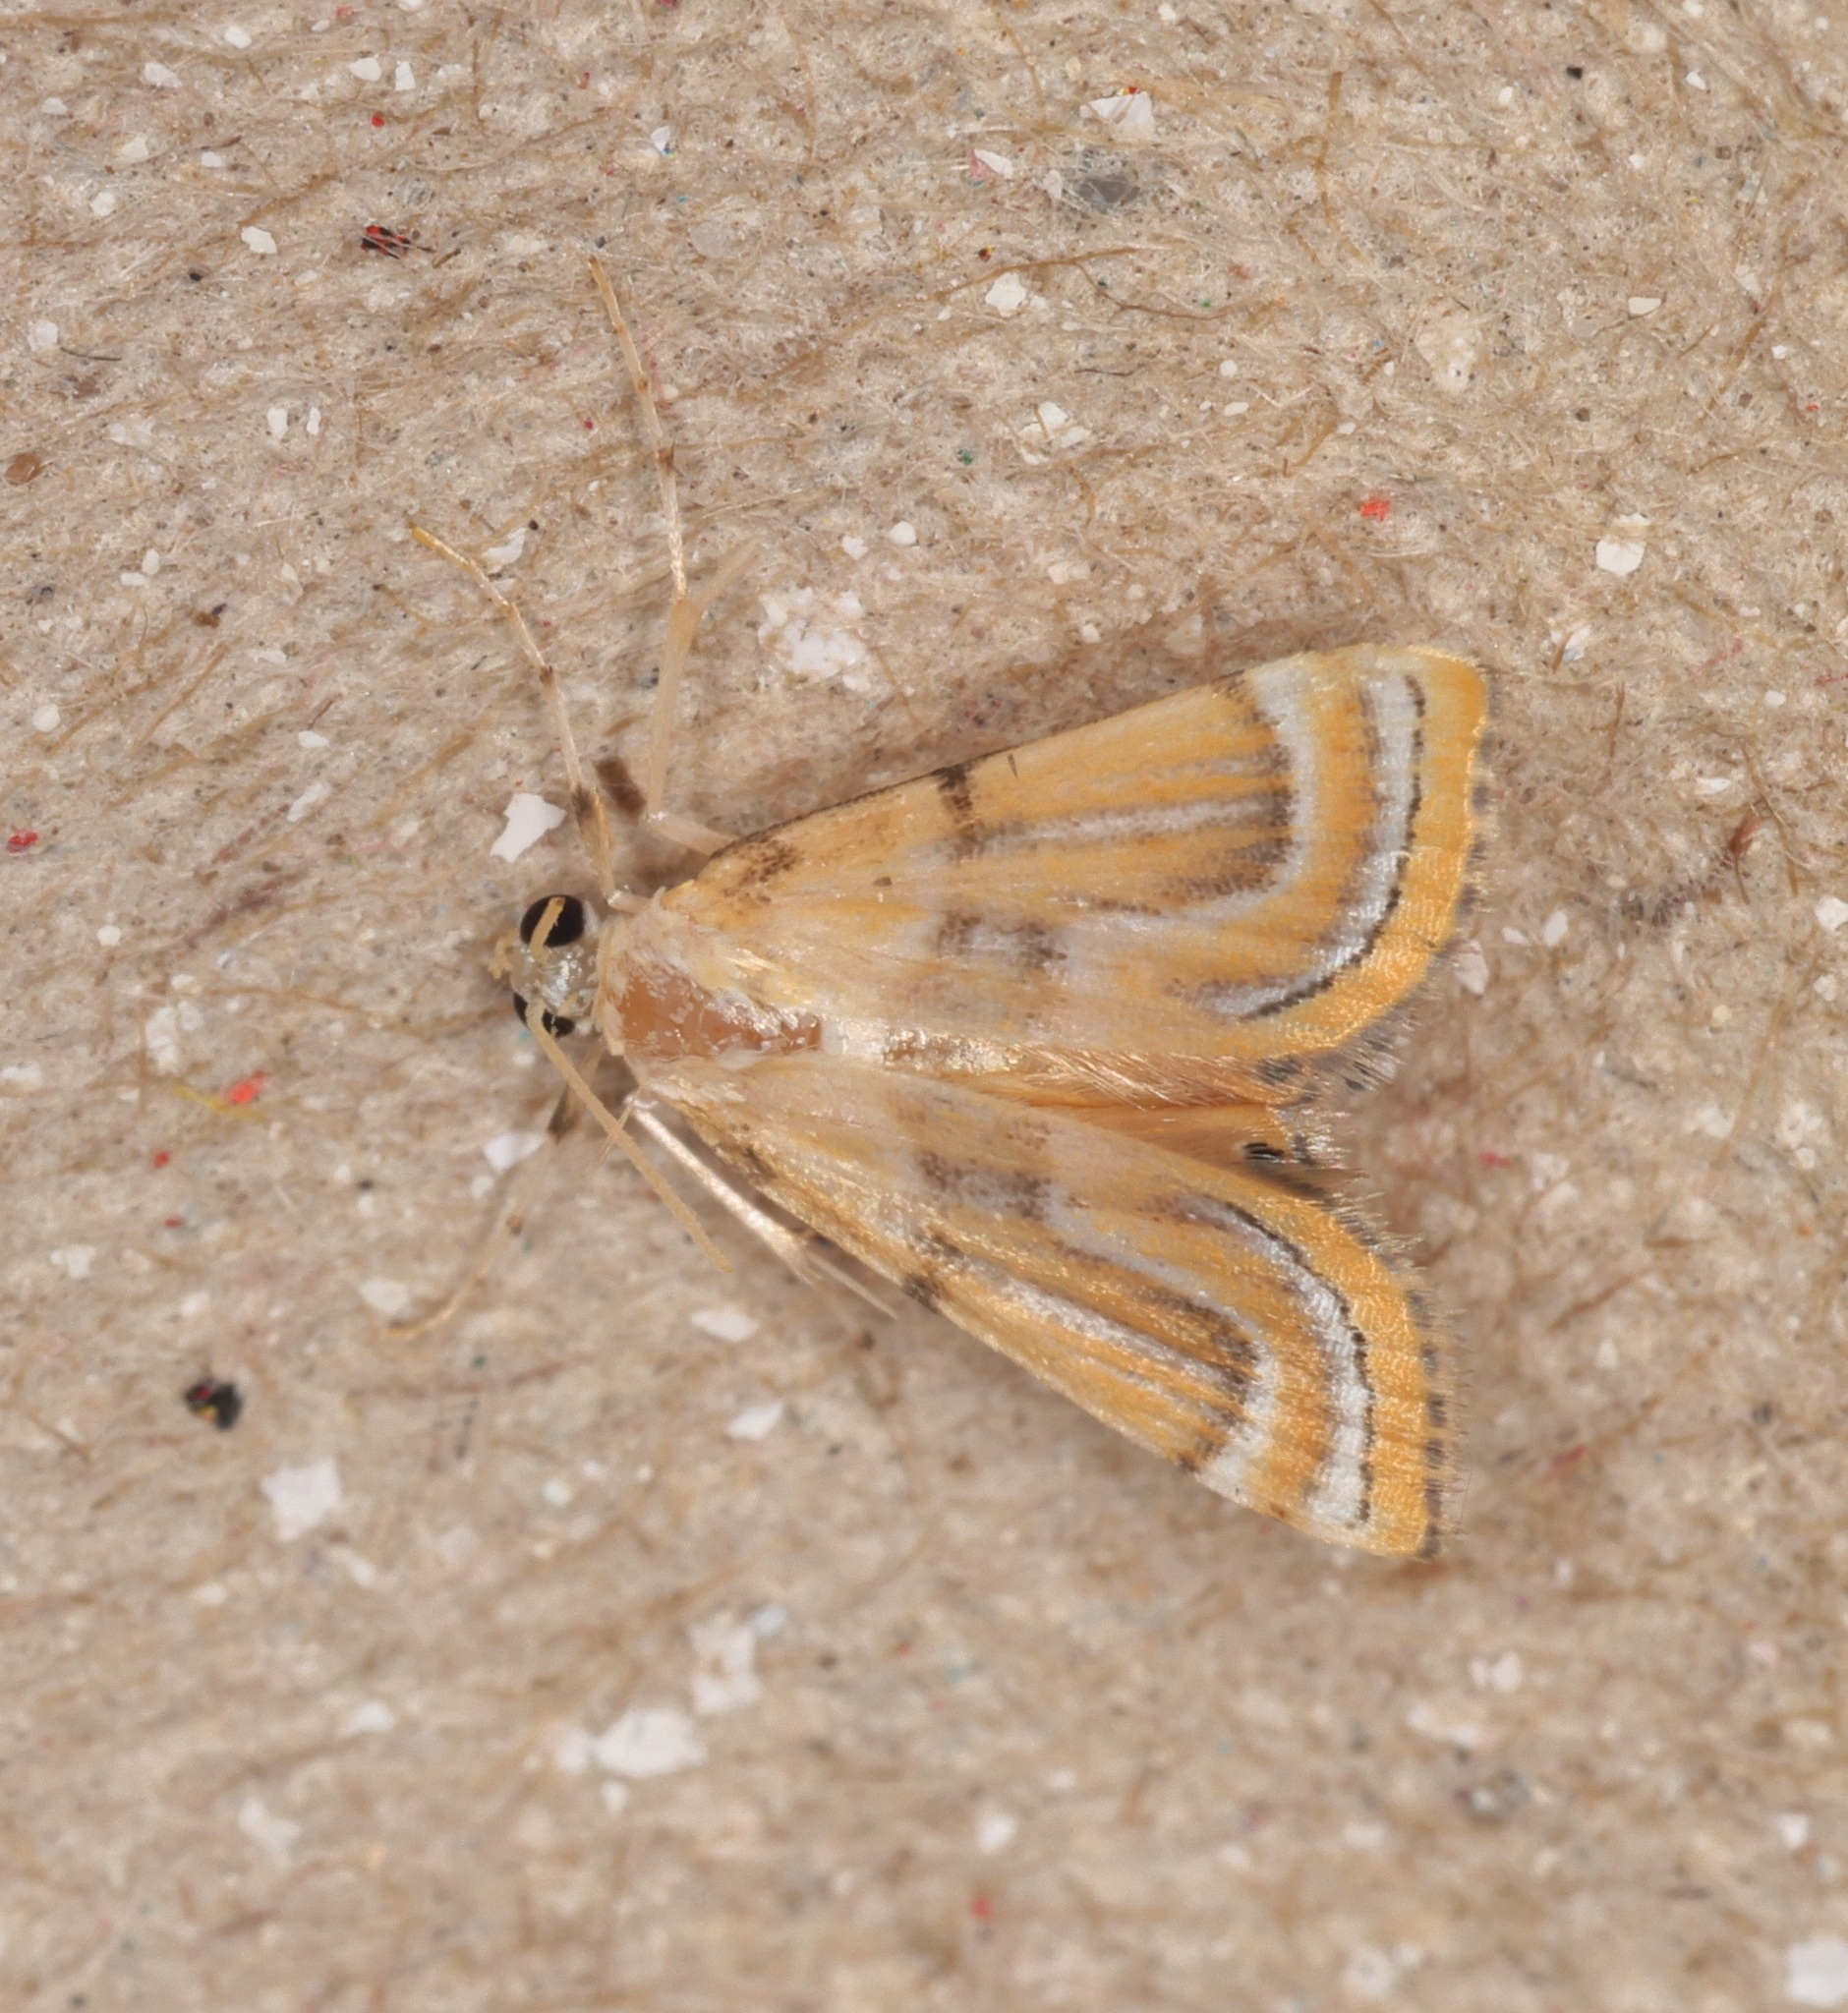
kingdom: Animalia
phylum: Arthropoda
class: Insecta
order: Lepidoptera
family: Crambidae
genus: Cataclysta
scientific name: Cataclysta angulata
